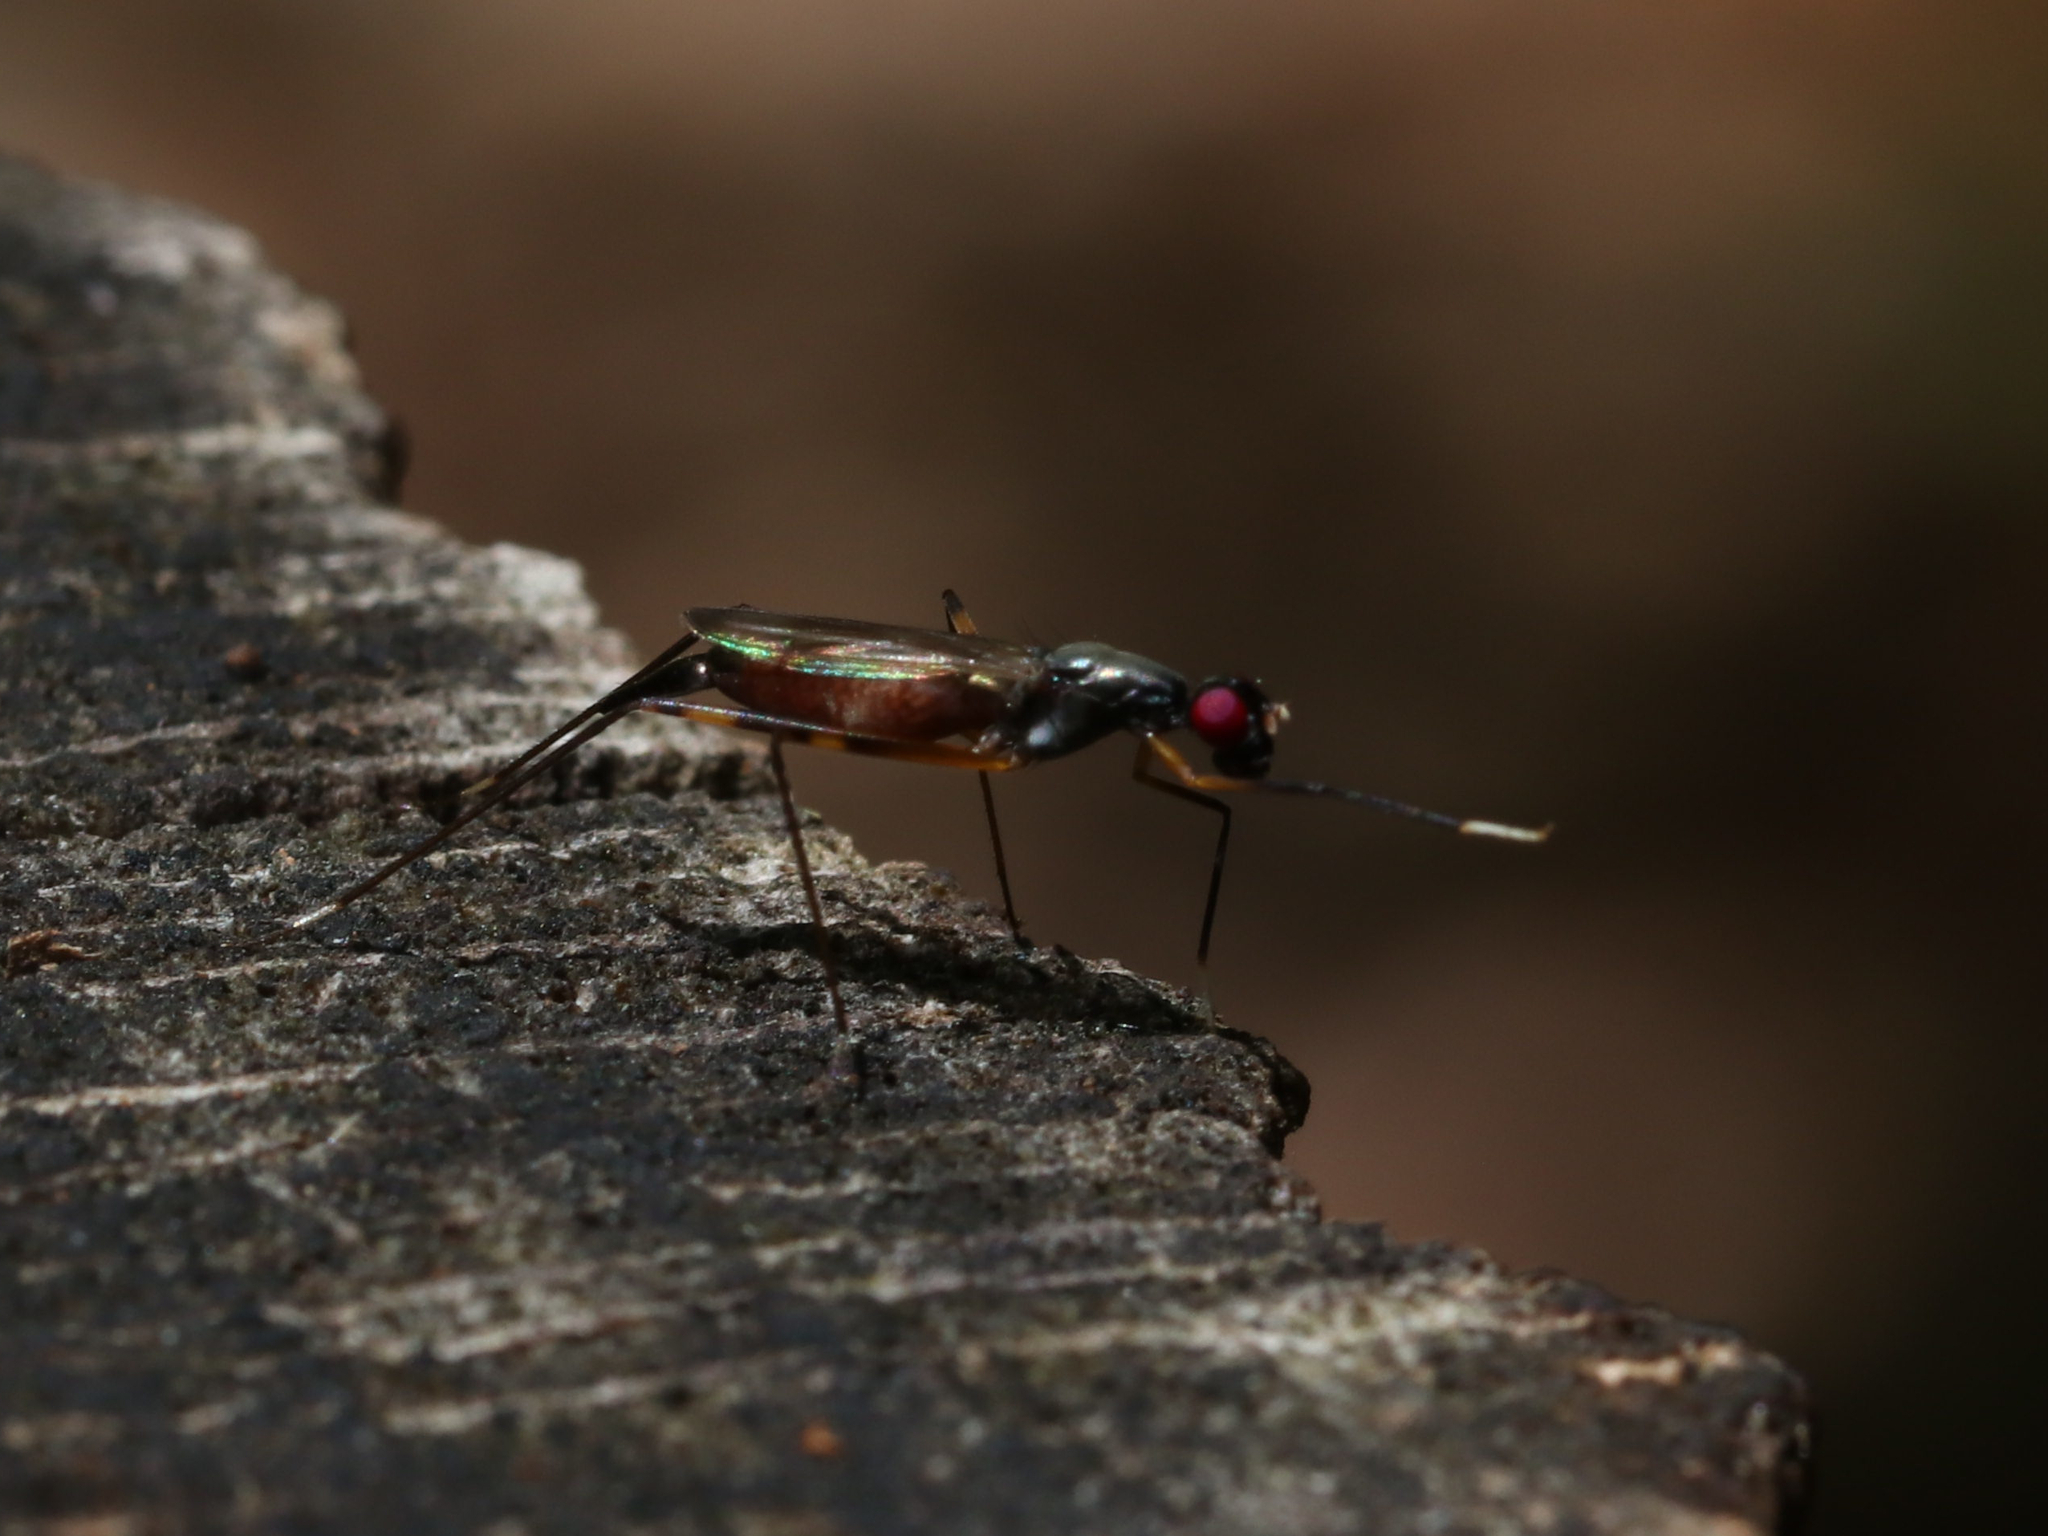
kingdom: Animalia
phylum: Arthropoda
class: Insecta
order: Diptera
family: Micropezidae
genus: Rainieria
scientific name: Rainieria antennaepes
